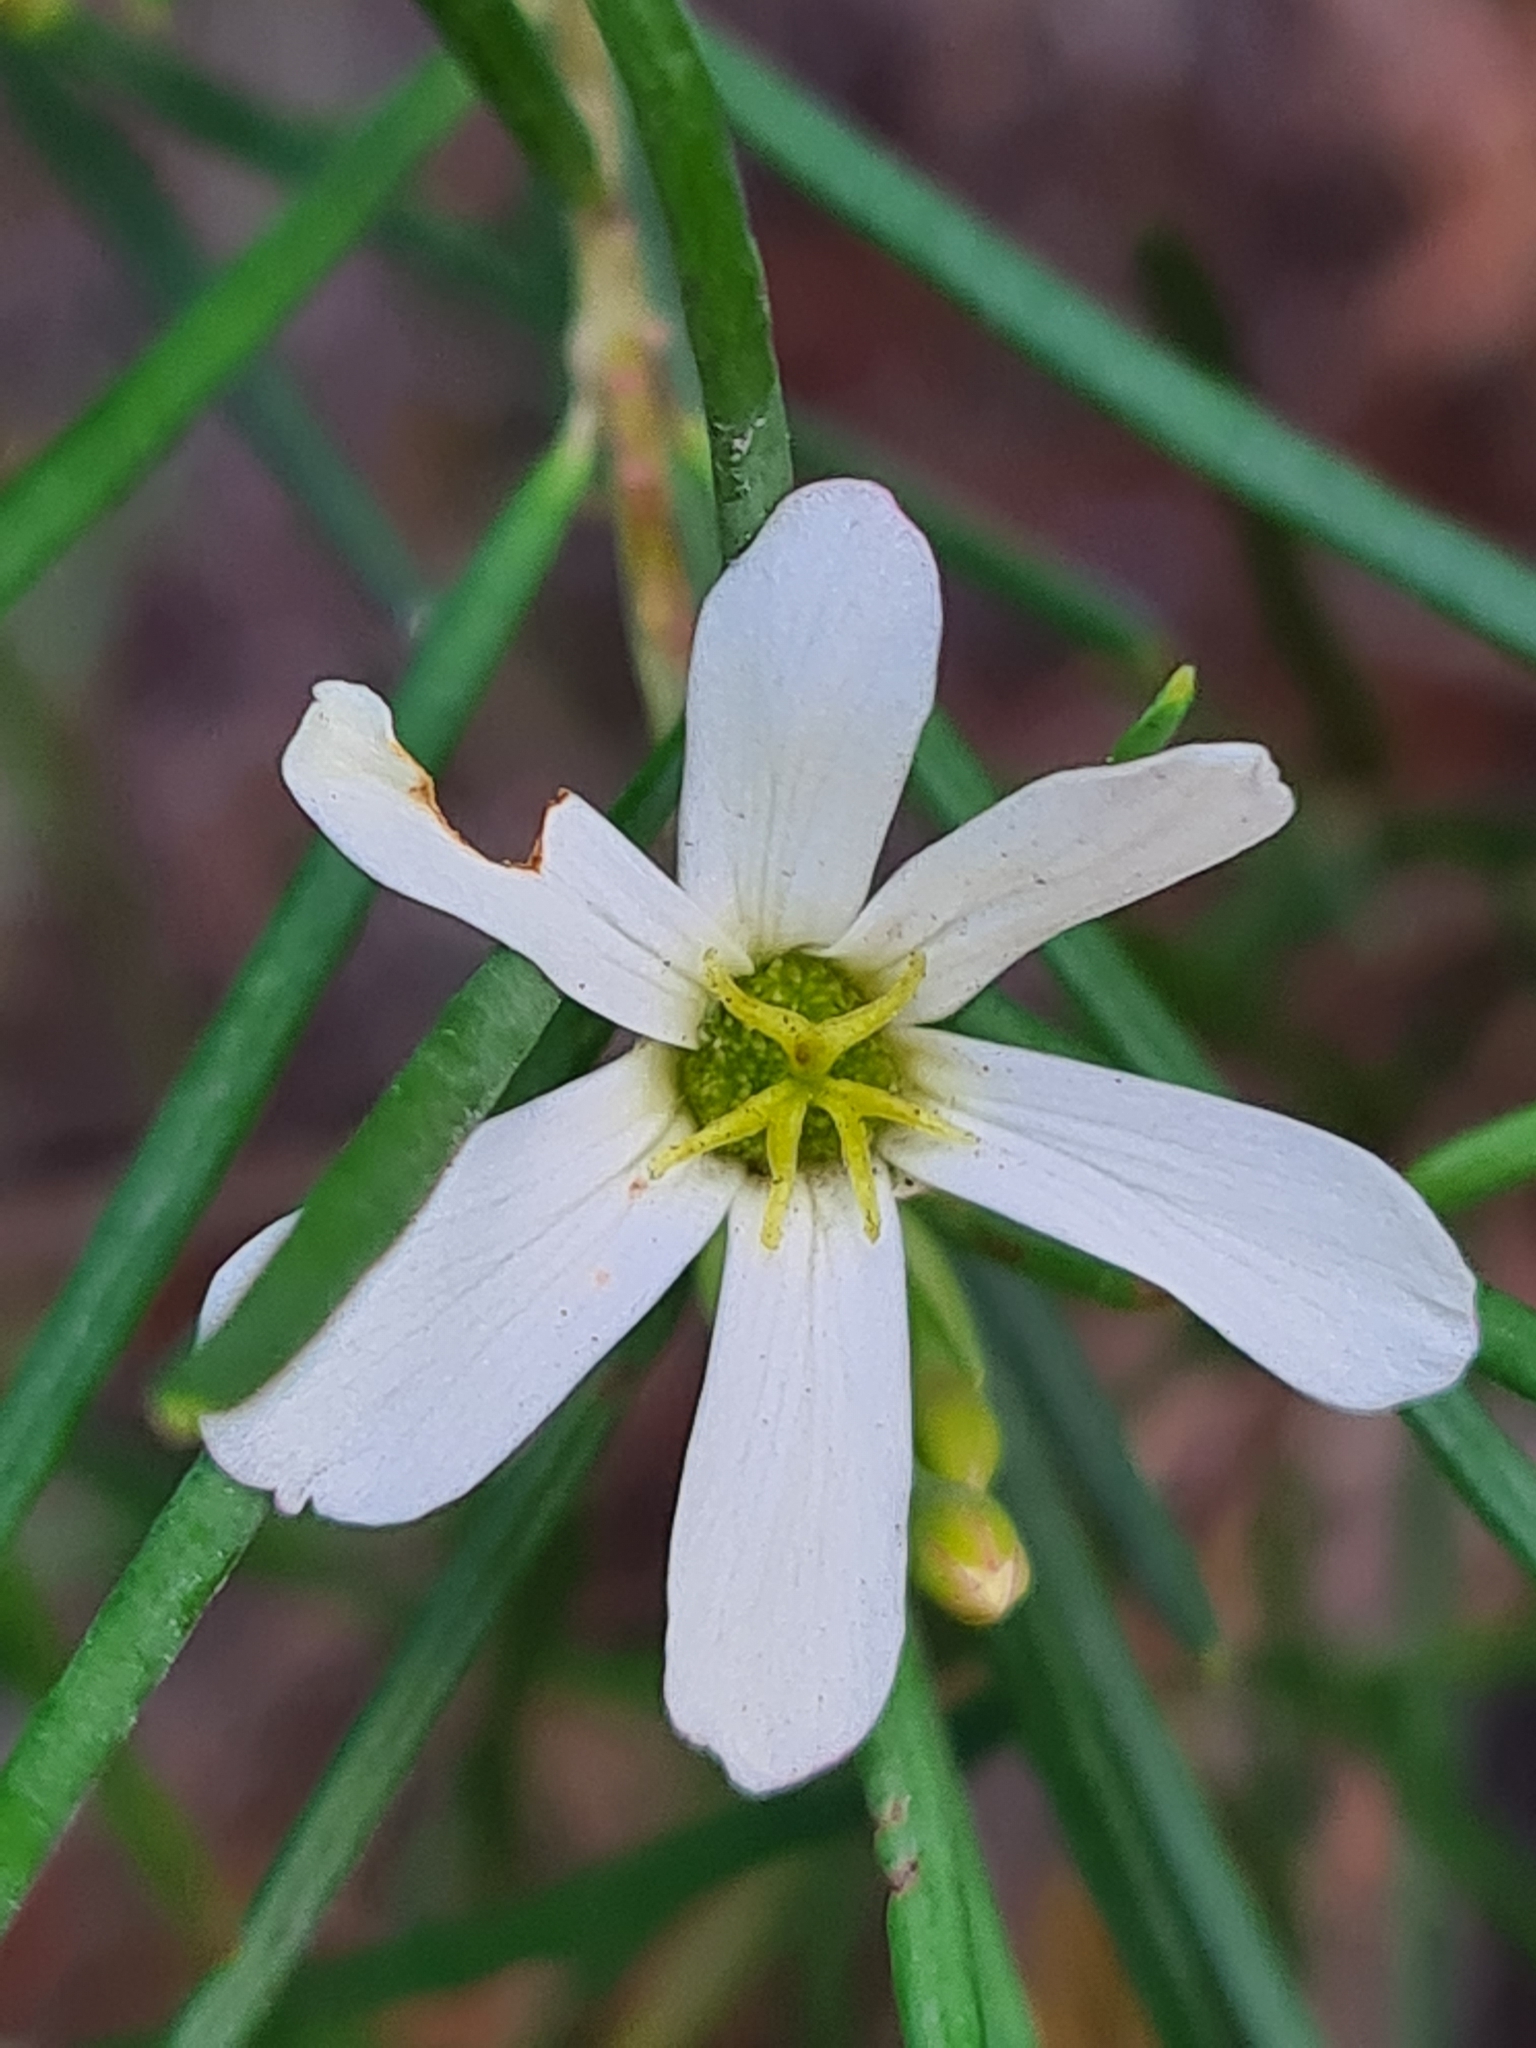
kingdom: Plantae
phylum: Tracheophyta
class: Magnoliopsida
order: Malpighiales
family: Euphorbiaceae
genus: Ricinocarpos
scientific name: Ricinocarpos pinifolius
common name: Weddingbush
